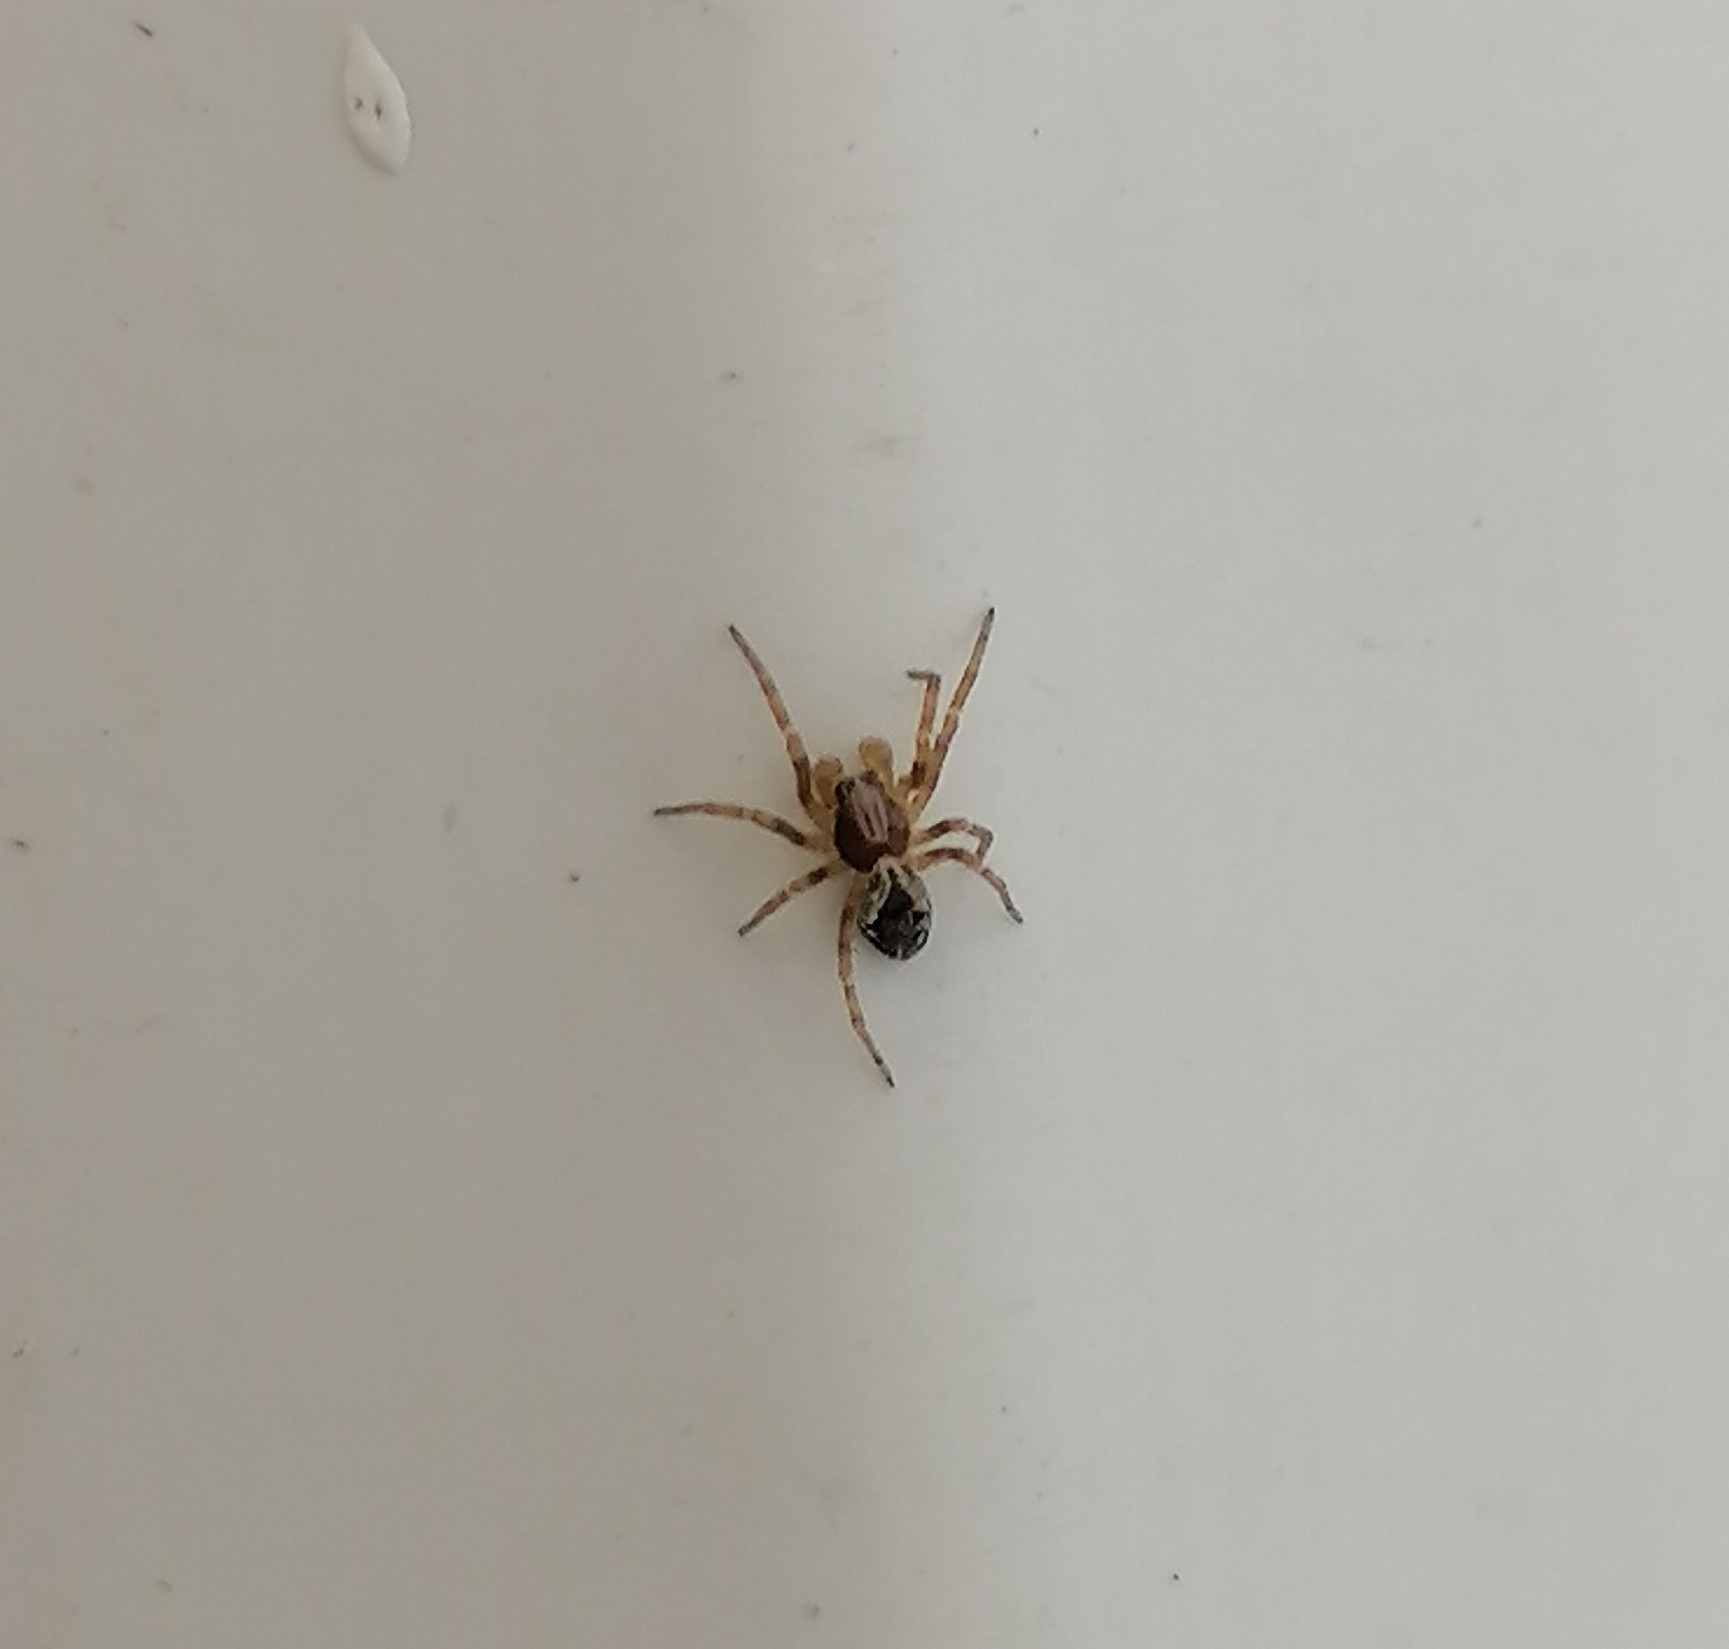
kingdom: Animalia
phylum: Arthropoda
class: Arachnida
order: Araneae
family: Dictynidae
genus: Brigittea
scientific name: Brigittea civica
